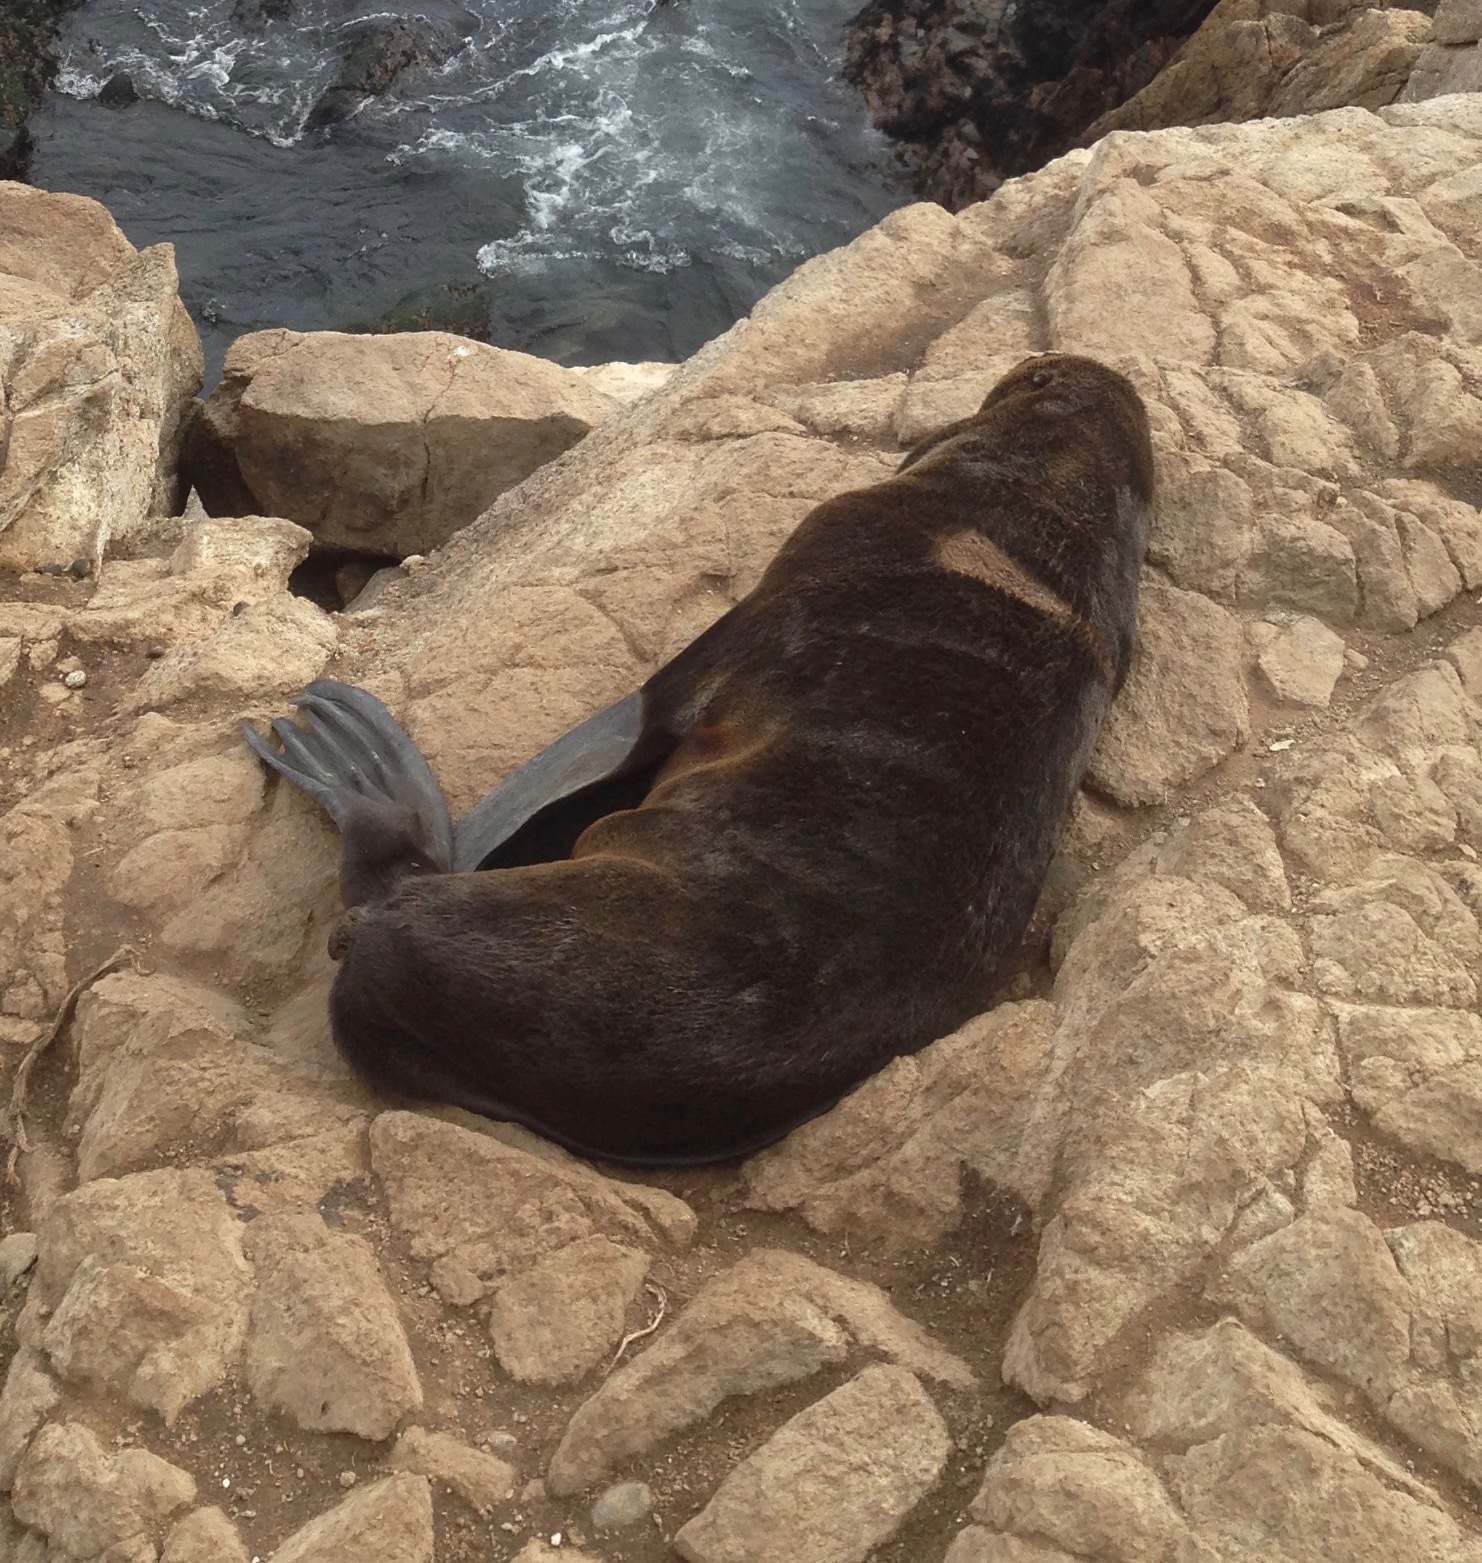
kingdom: Animalia
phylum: Chordata
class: Mammalia
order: Carnivora
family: Otariidae
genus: Callorhinus
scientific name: Callorhinus ursinus
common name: Northern fur seal
